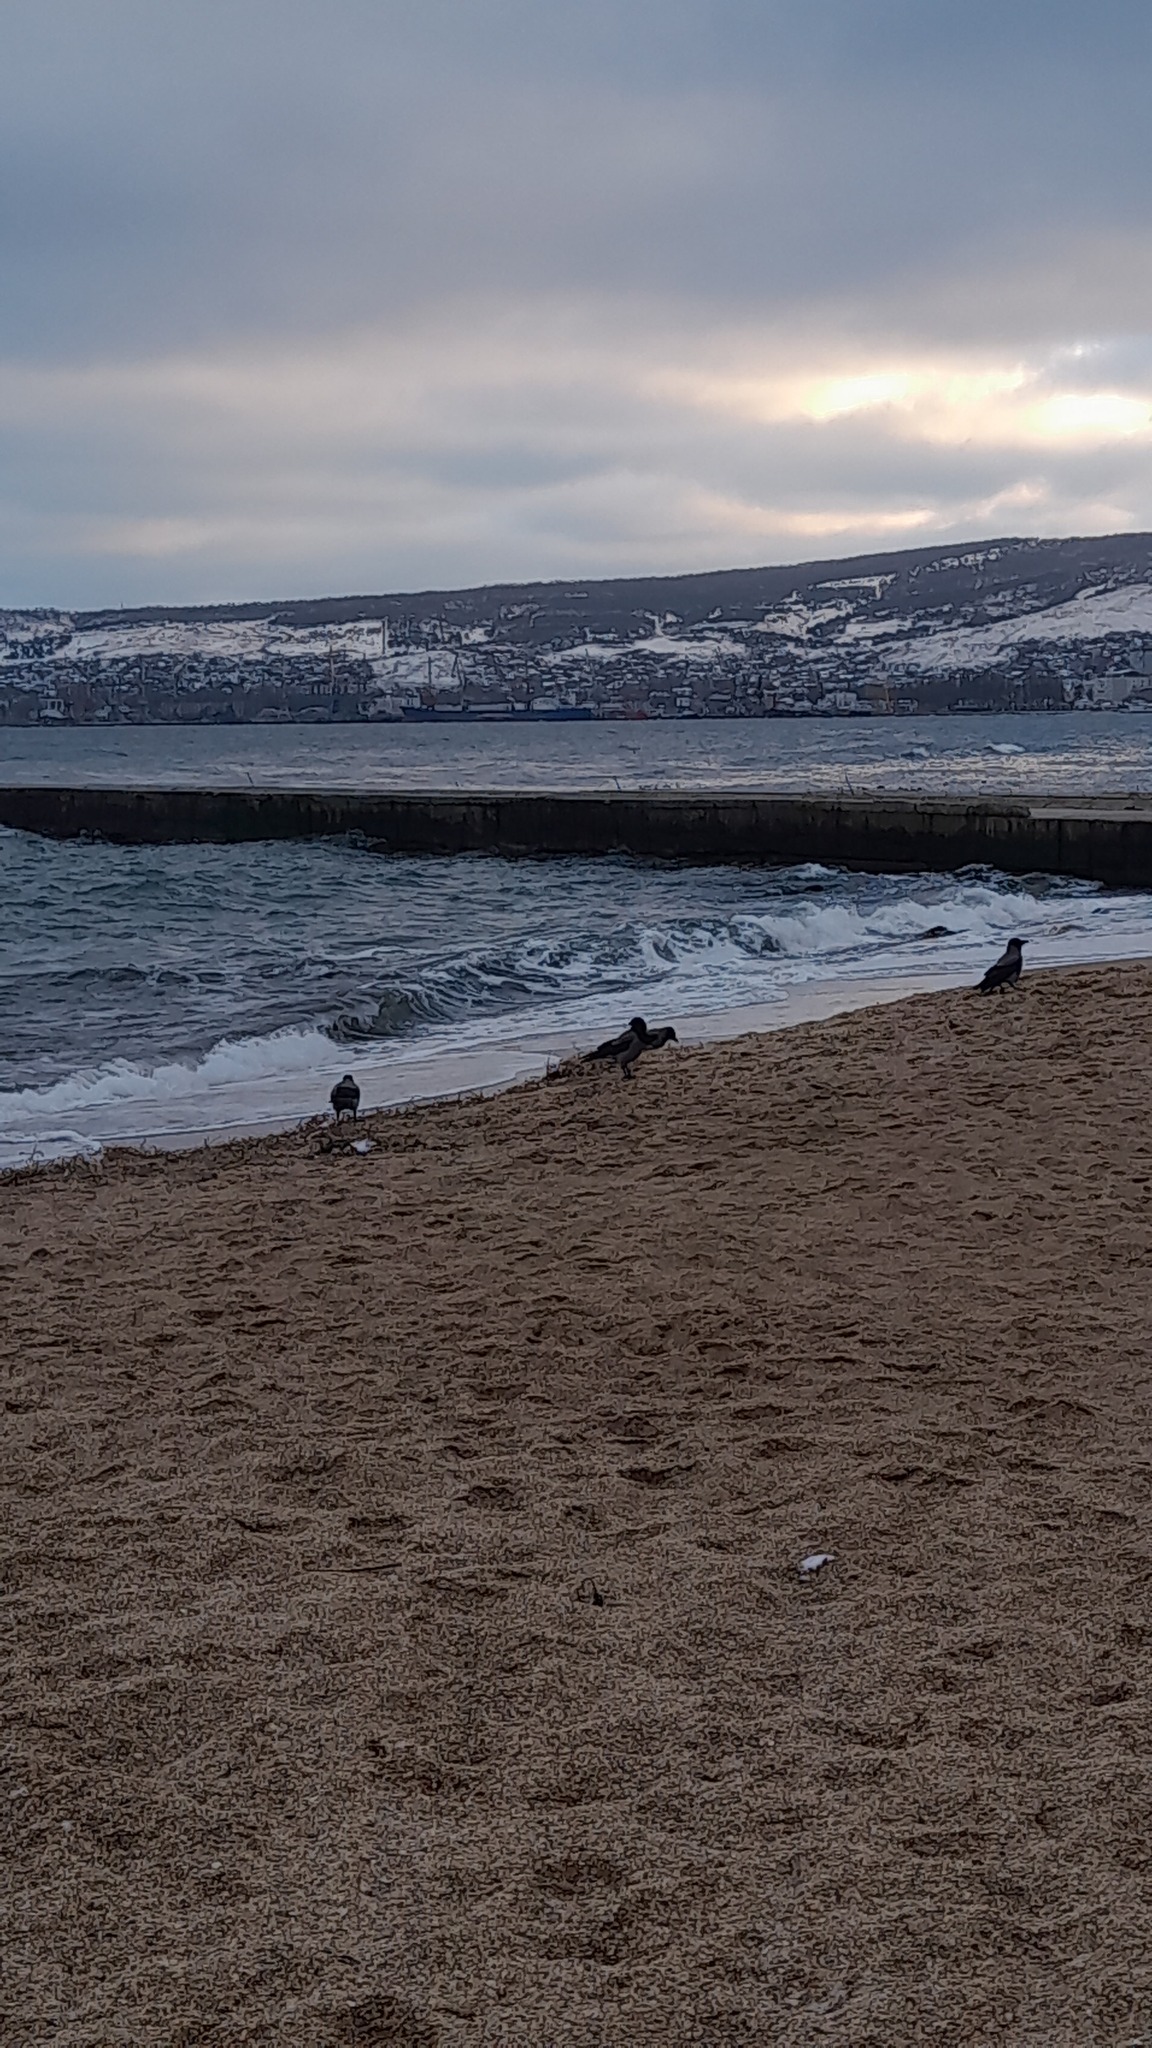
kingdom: Animalia
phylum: Chordata
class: Aves
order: Passeriformes
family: Corvidae
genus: Corvus
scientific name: Corvus cornix
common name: Hooded crow
